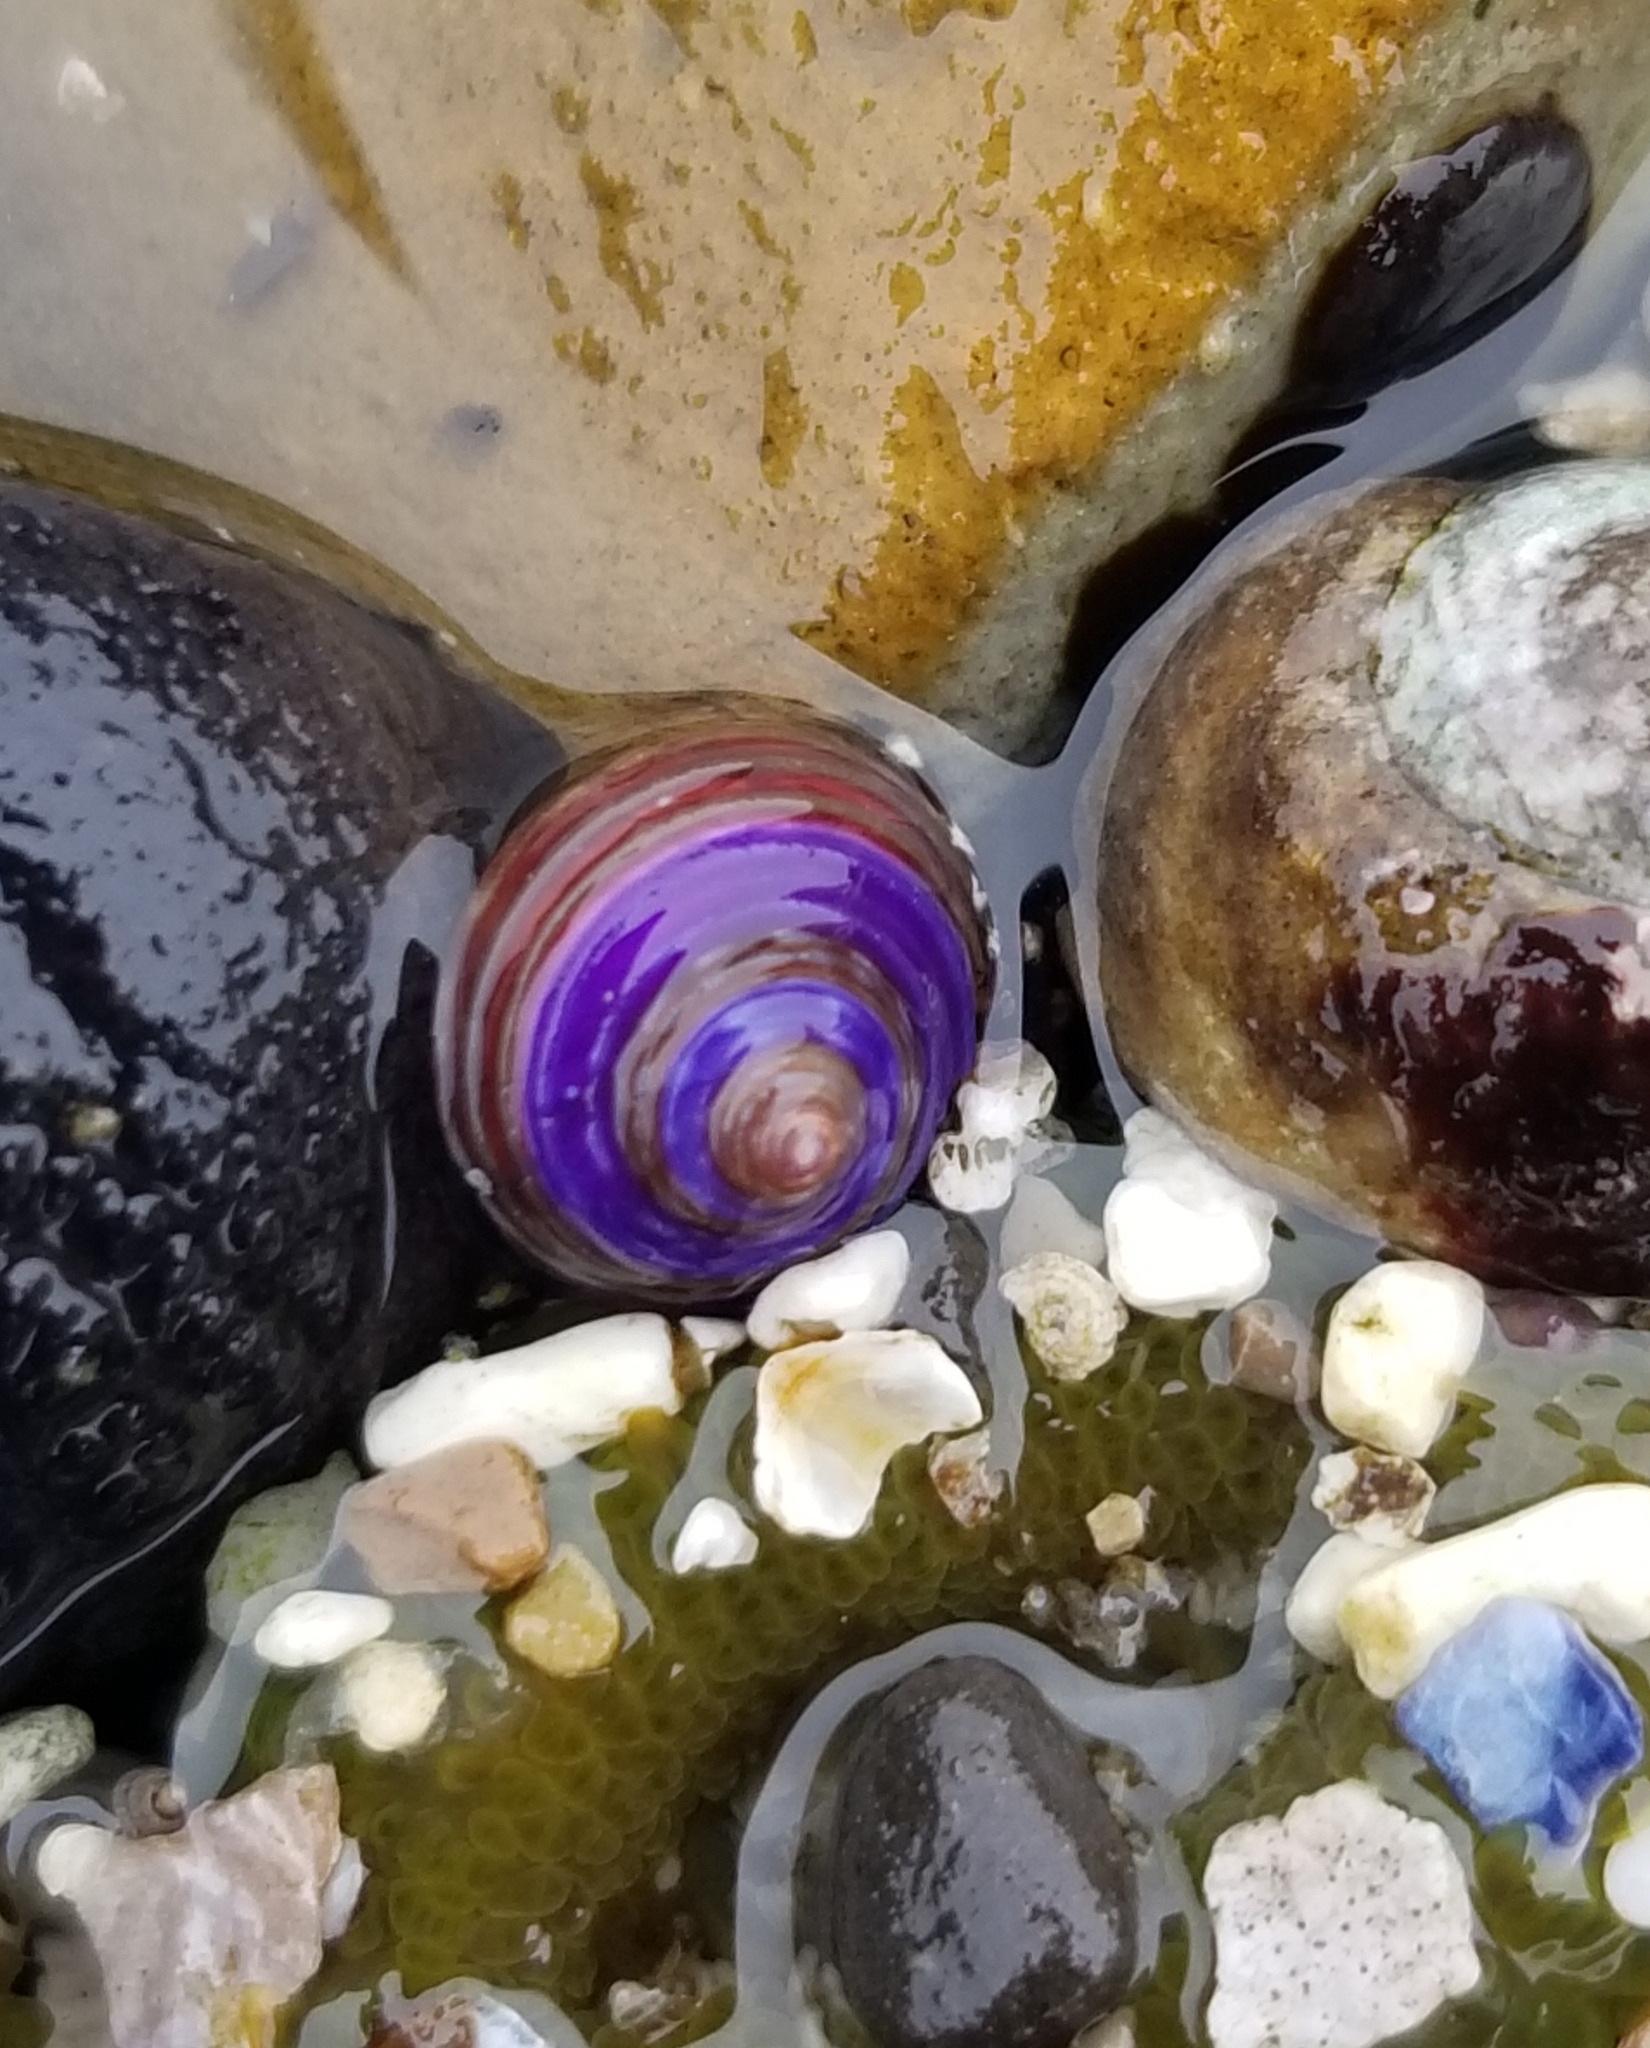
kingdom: Animalia
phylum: Mollusca
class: Gastropoda
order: Trochida
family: Calliostomatidae
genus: Calliostoma
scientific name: Calliostoma ligatum
